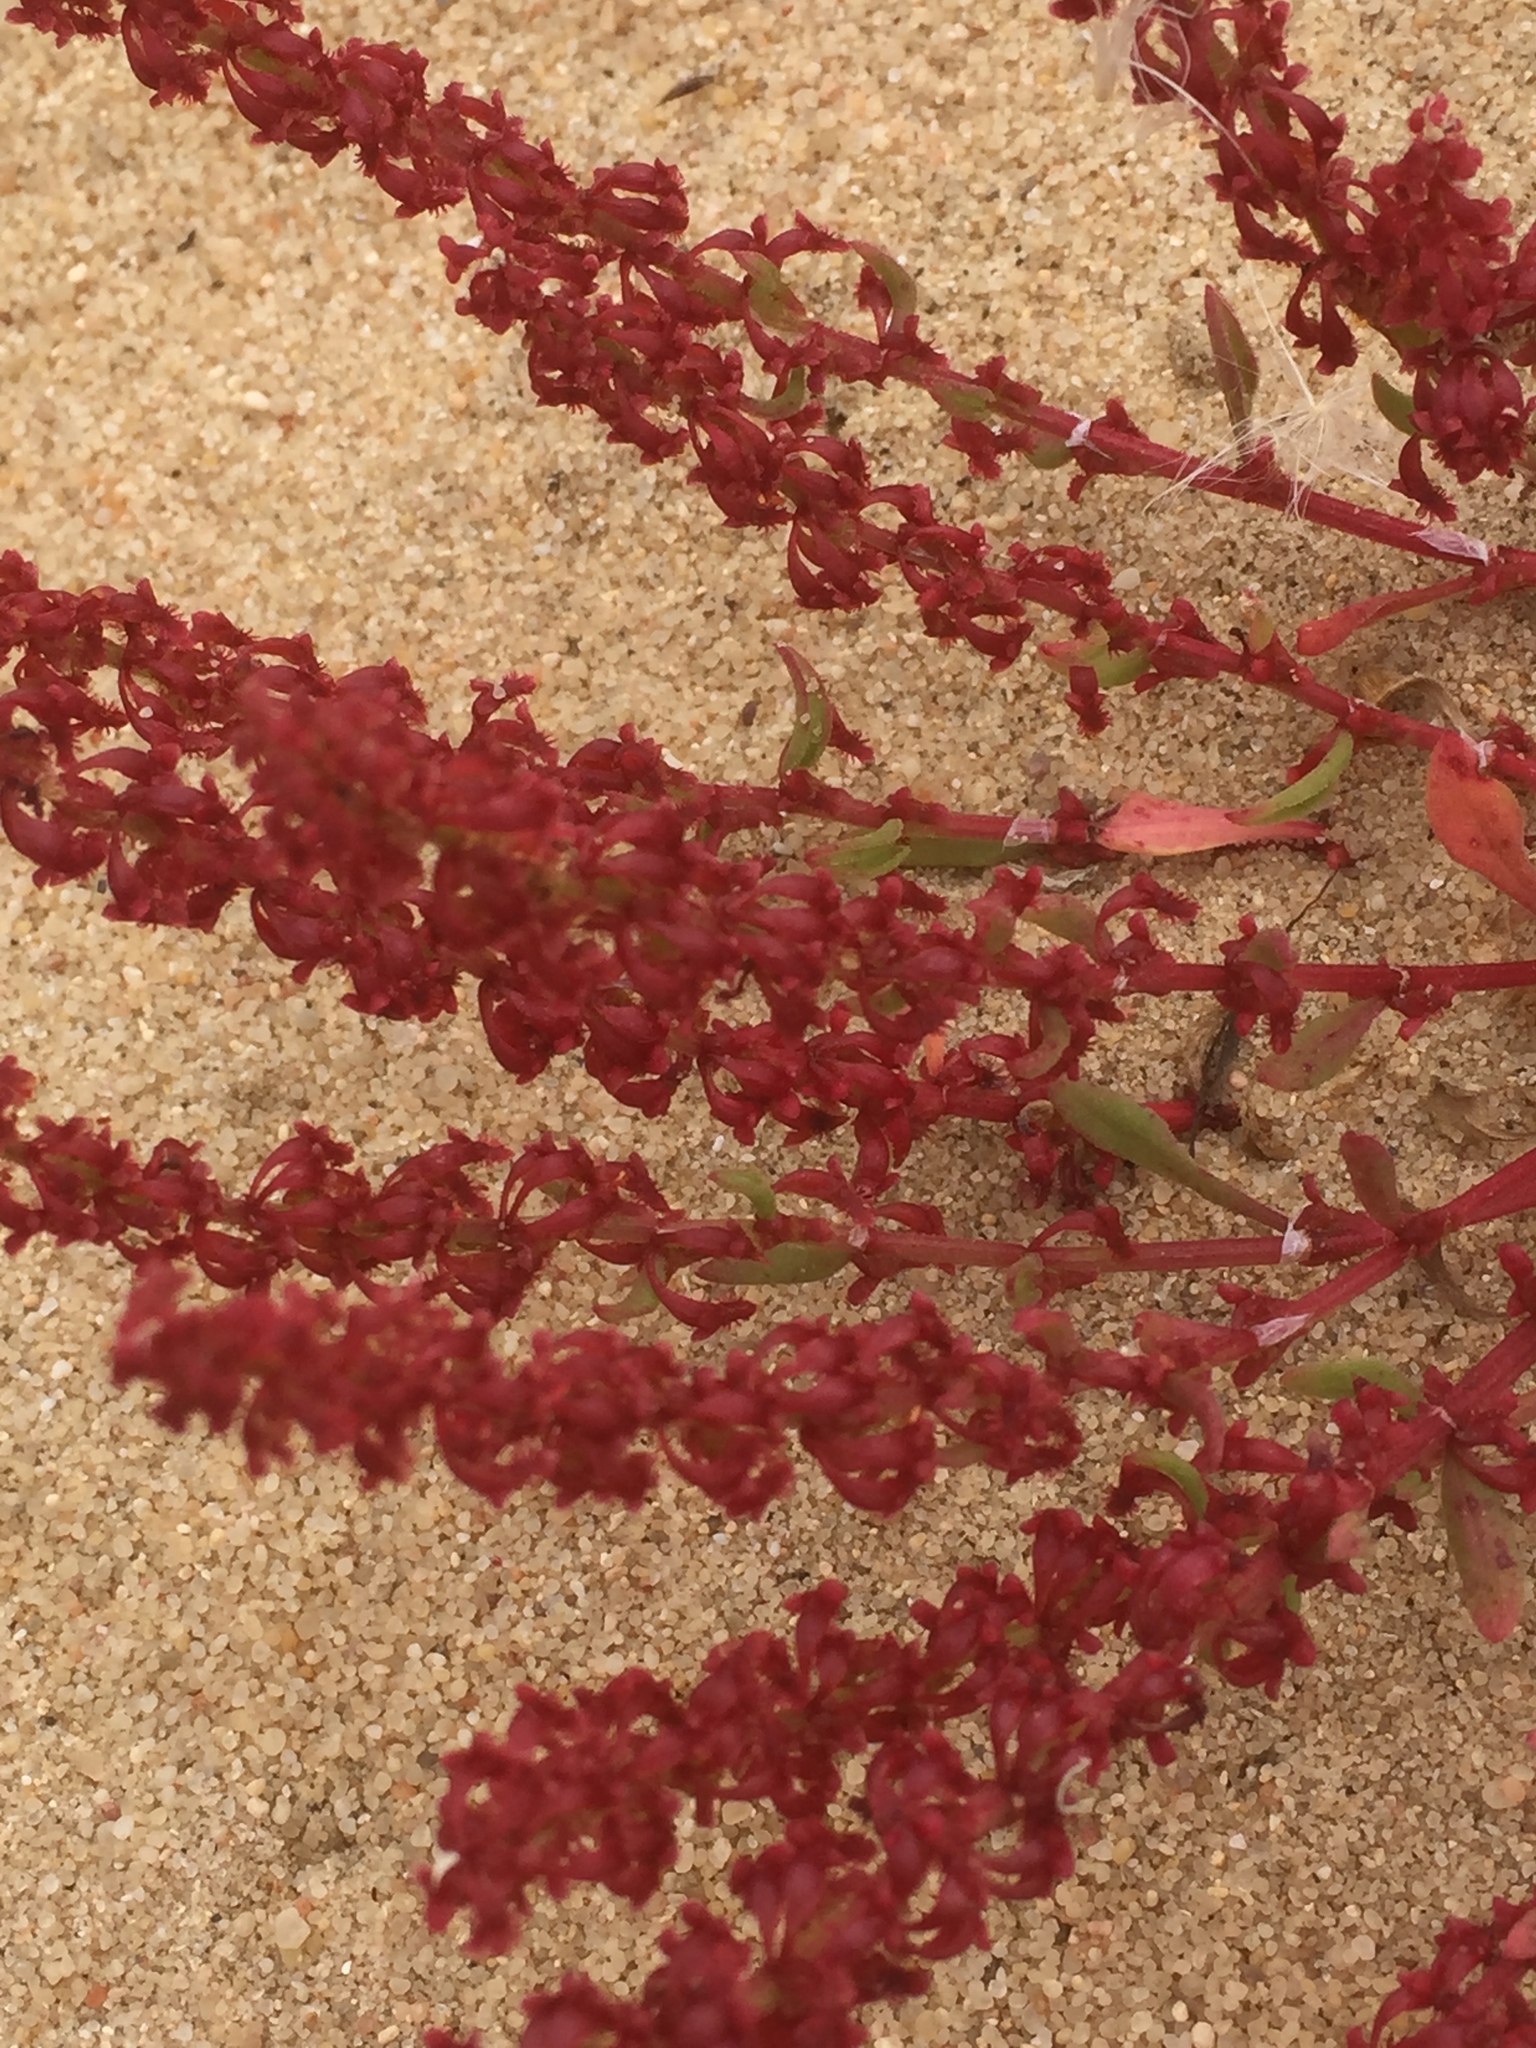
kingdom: Plantae
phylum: Tracheophyta
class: Magnoliopsida
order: Caryophyllales
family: Polygonaceae
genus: Rumex
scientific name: Rumex bucephalophorus
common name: Red dock
